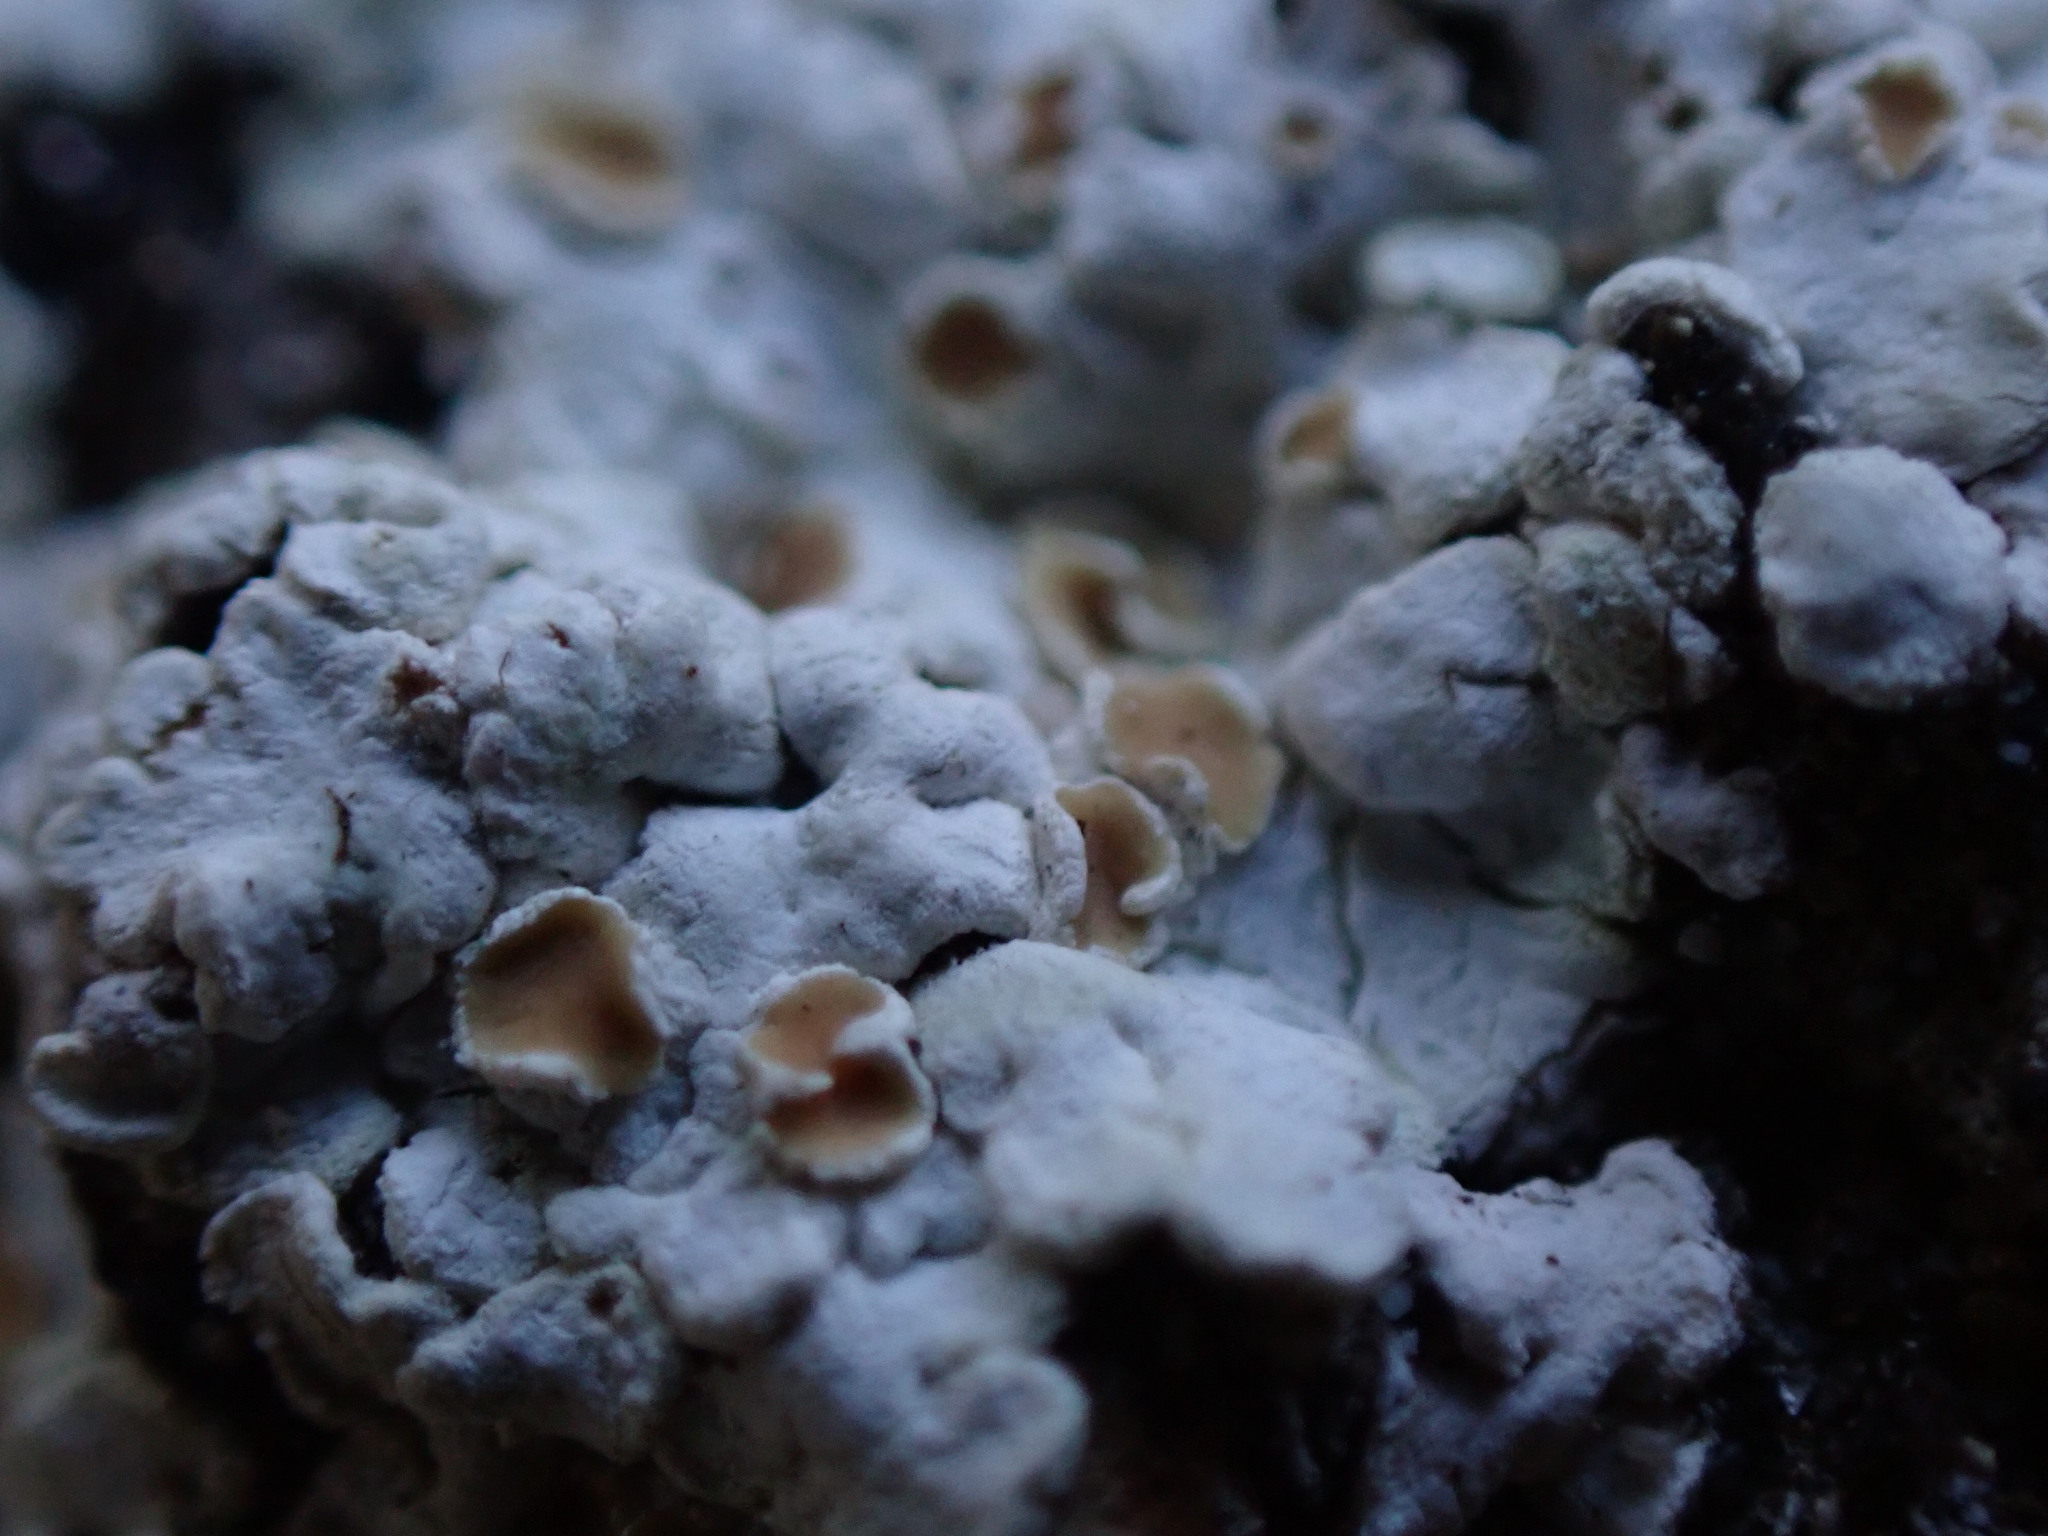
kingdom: Fungi
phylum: Ascomycota
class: Lecanoromycetes
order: Lecanorales
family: Stereocaulaceae
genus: Squamarina
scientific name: Squamarina lentigera
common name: Scaly breck-lichen
